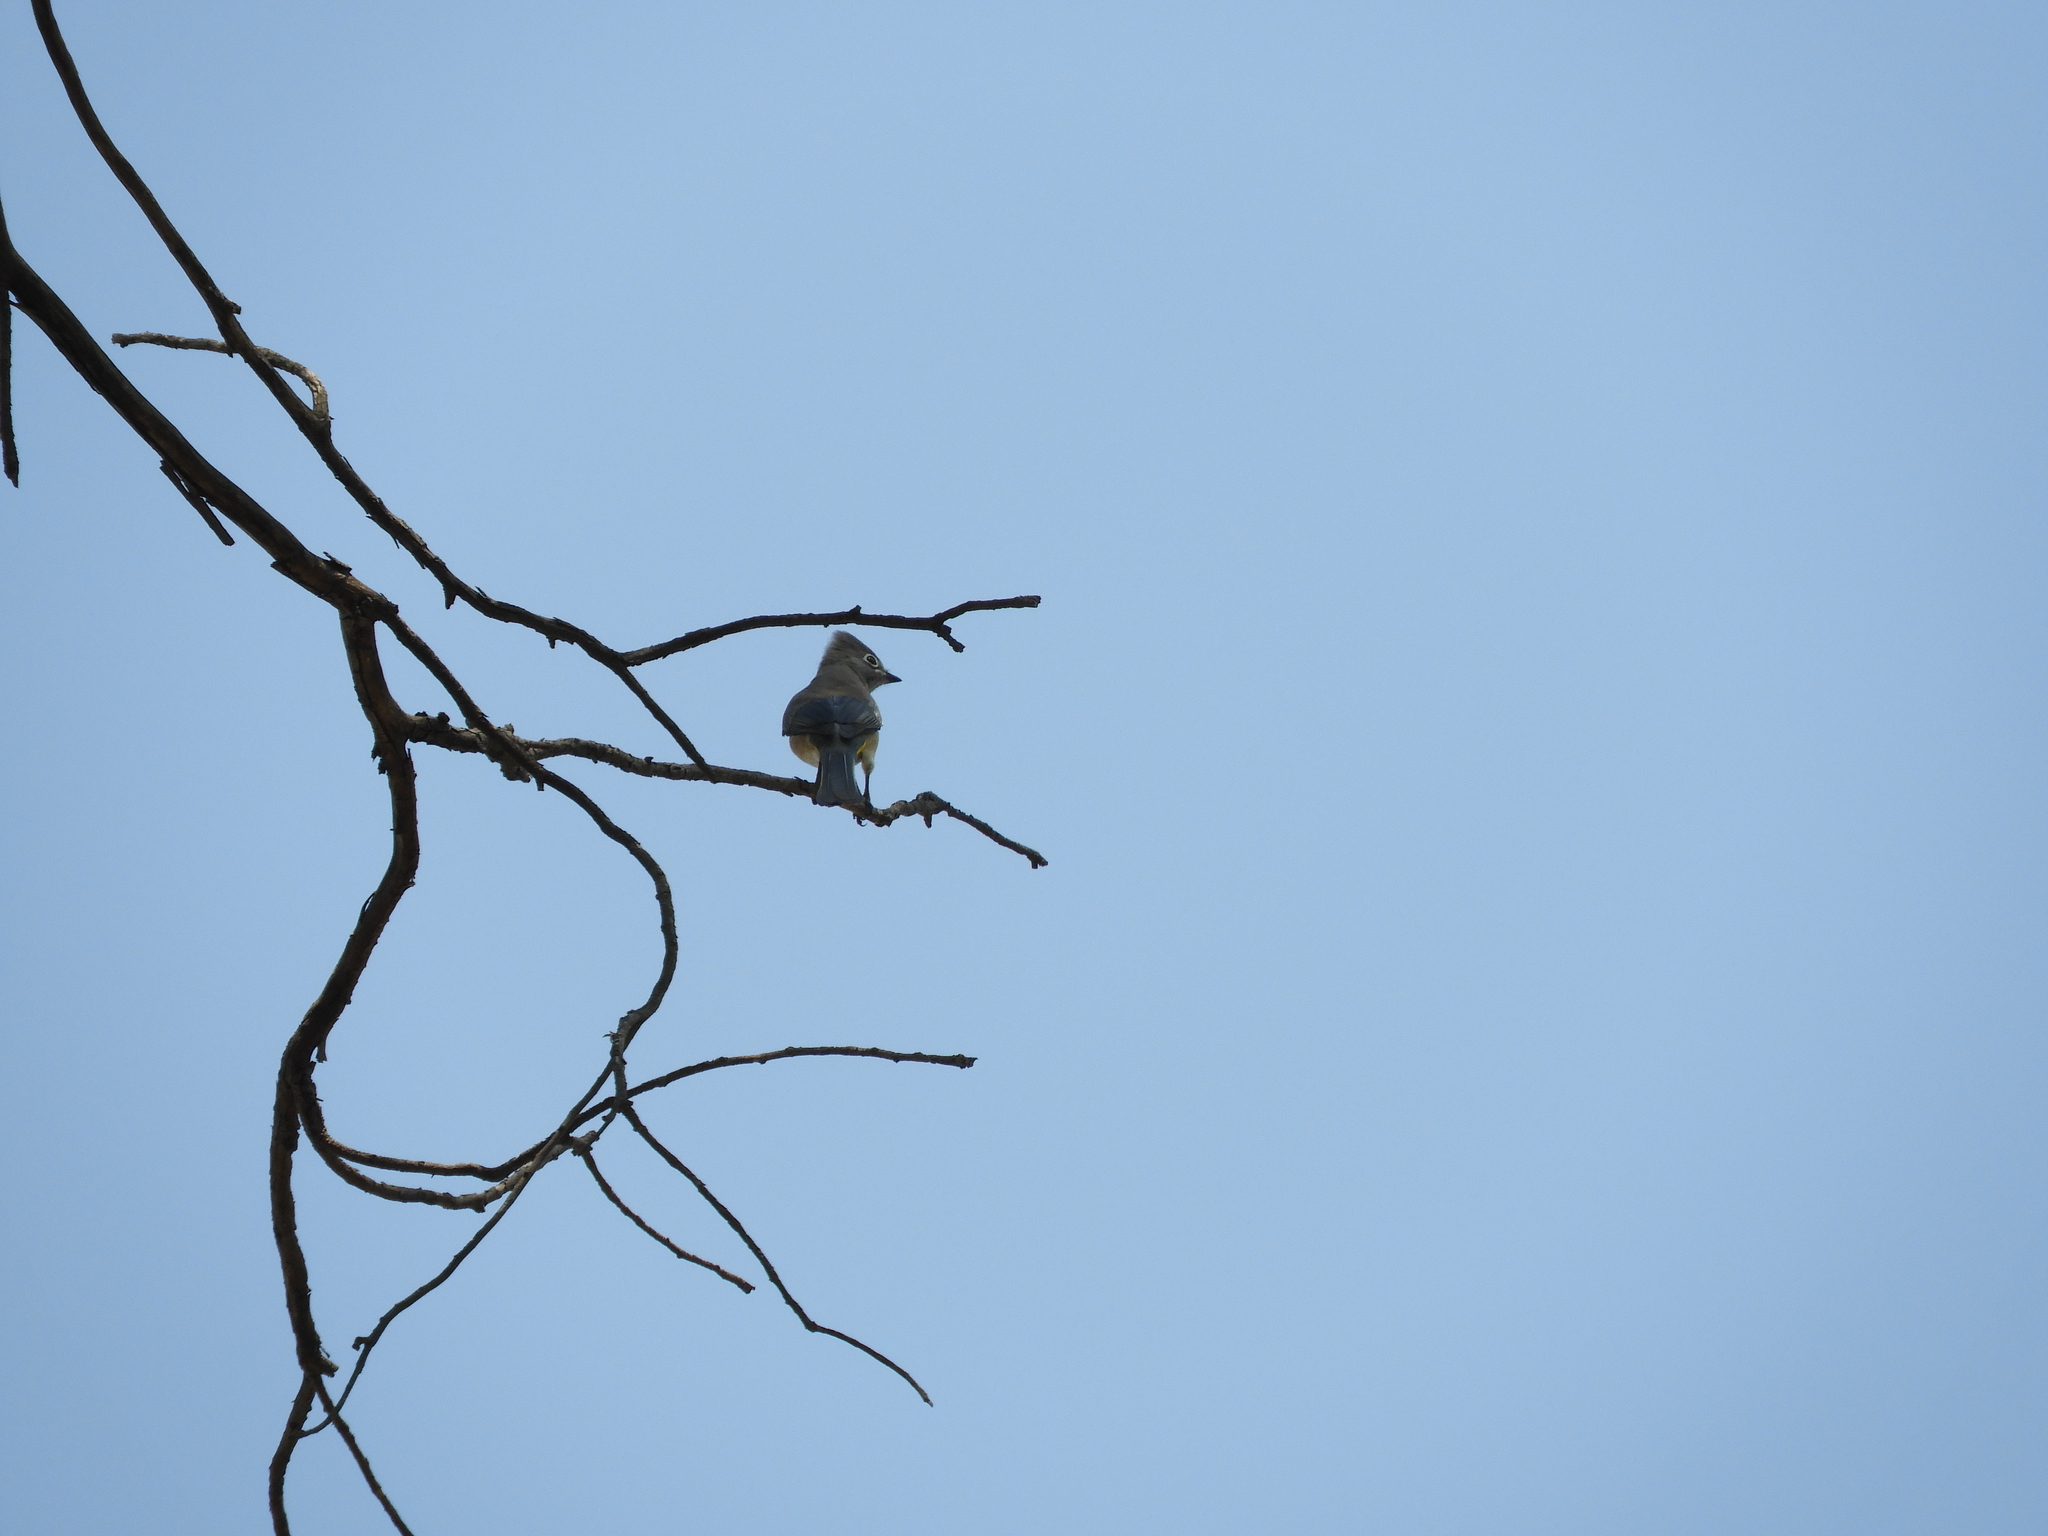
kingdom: Animalia
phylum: Chordata
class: Aves
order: Passeriformes
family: Ptilogonatidae
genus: Ptilogonys
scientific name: Ptilogonys cinereus
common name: Gray silky-flycatcher
